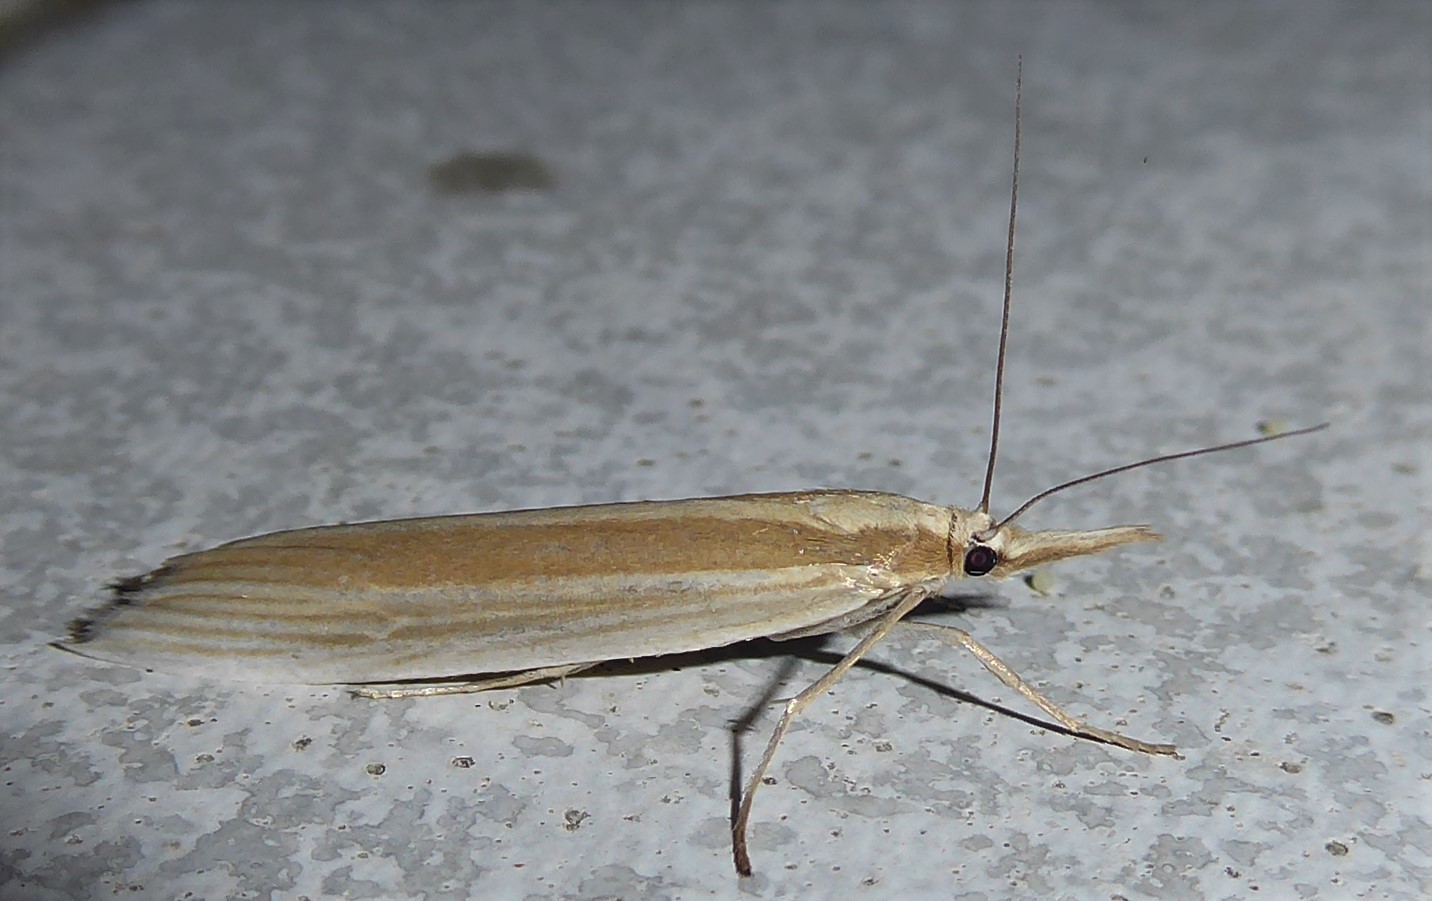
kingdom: Animalia
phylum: Arthropoda
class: Insecta
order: Lepidoptera
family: Crambidae
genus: Orocrambus
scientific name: Orocrambus angustipennis
